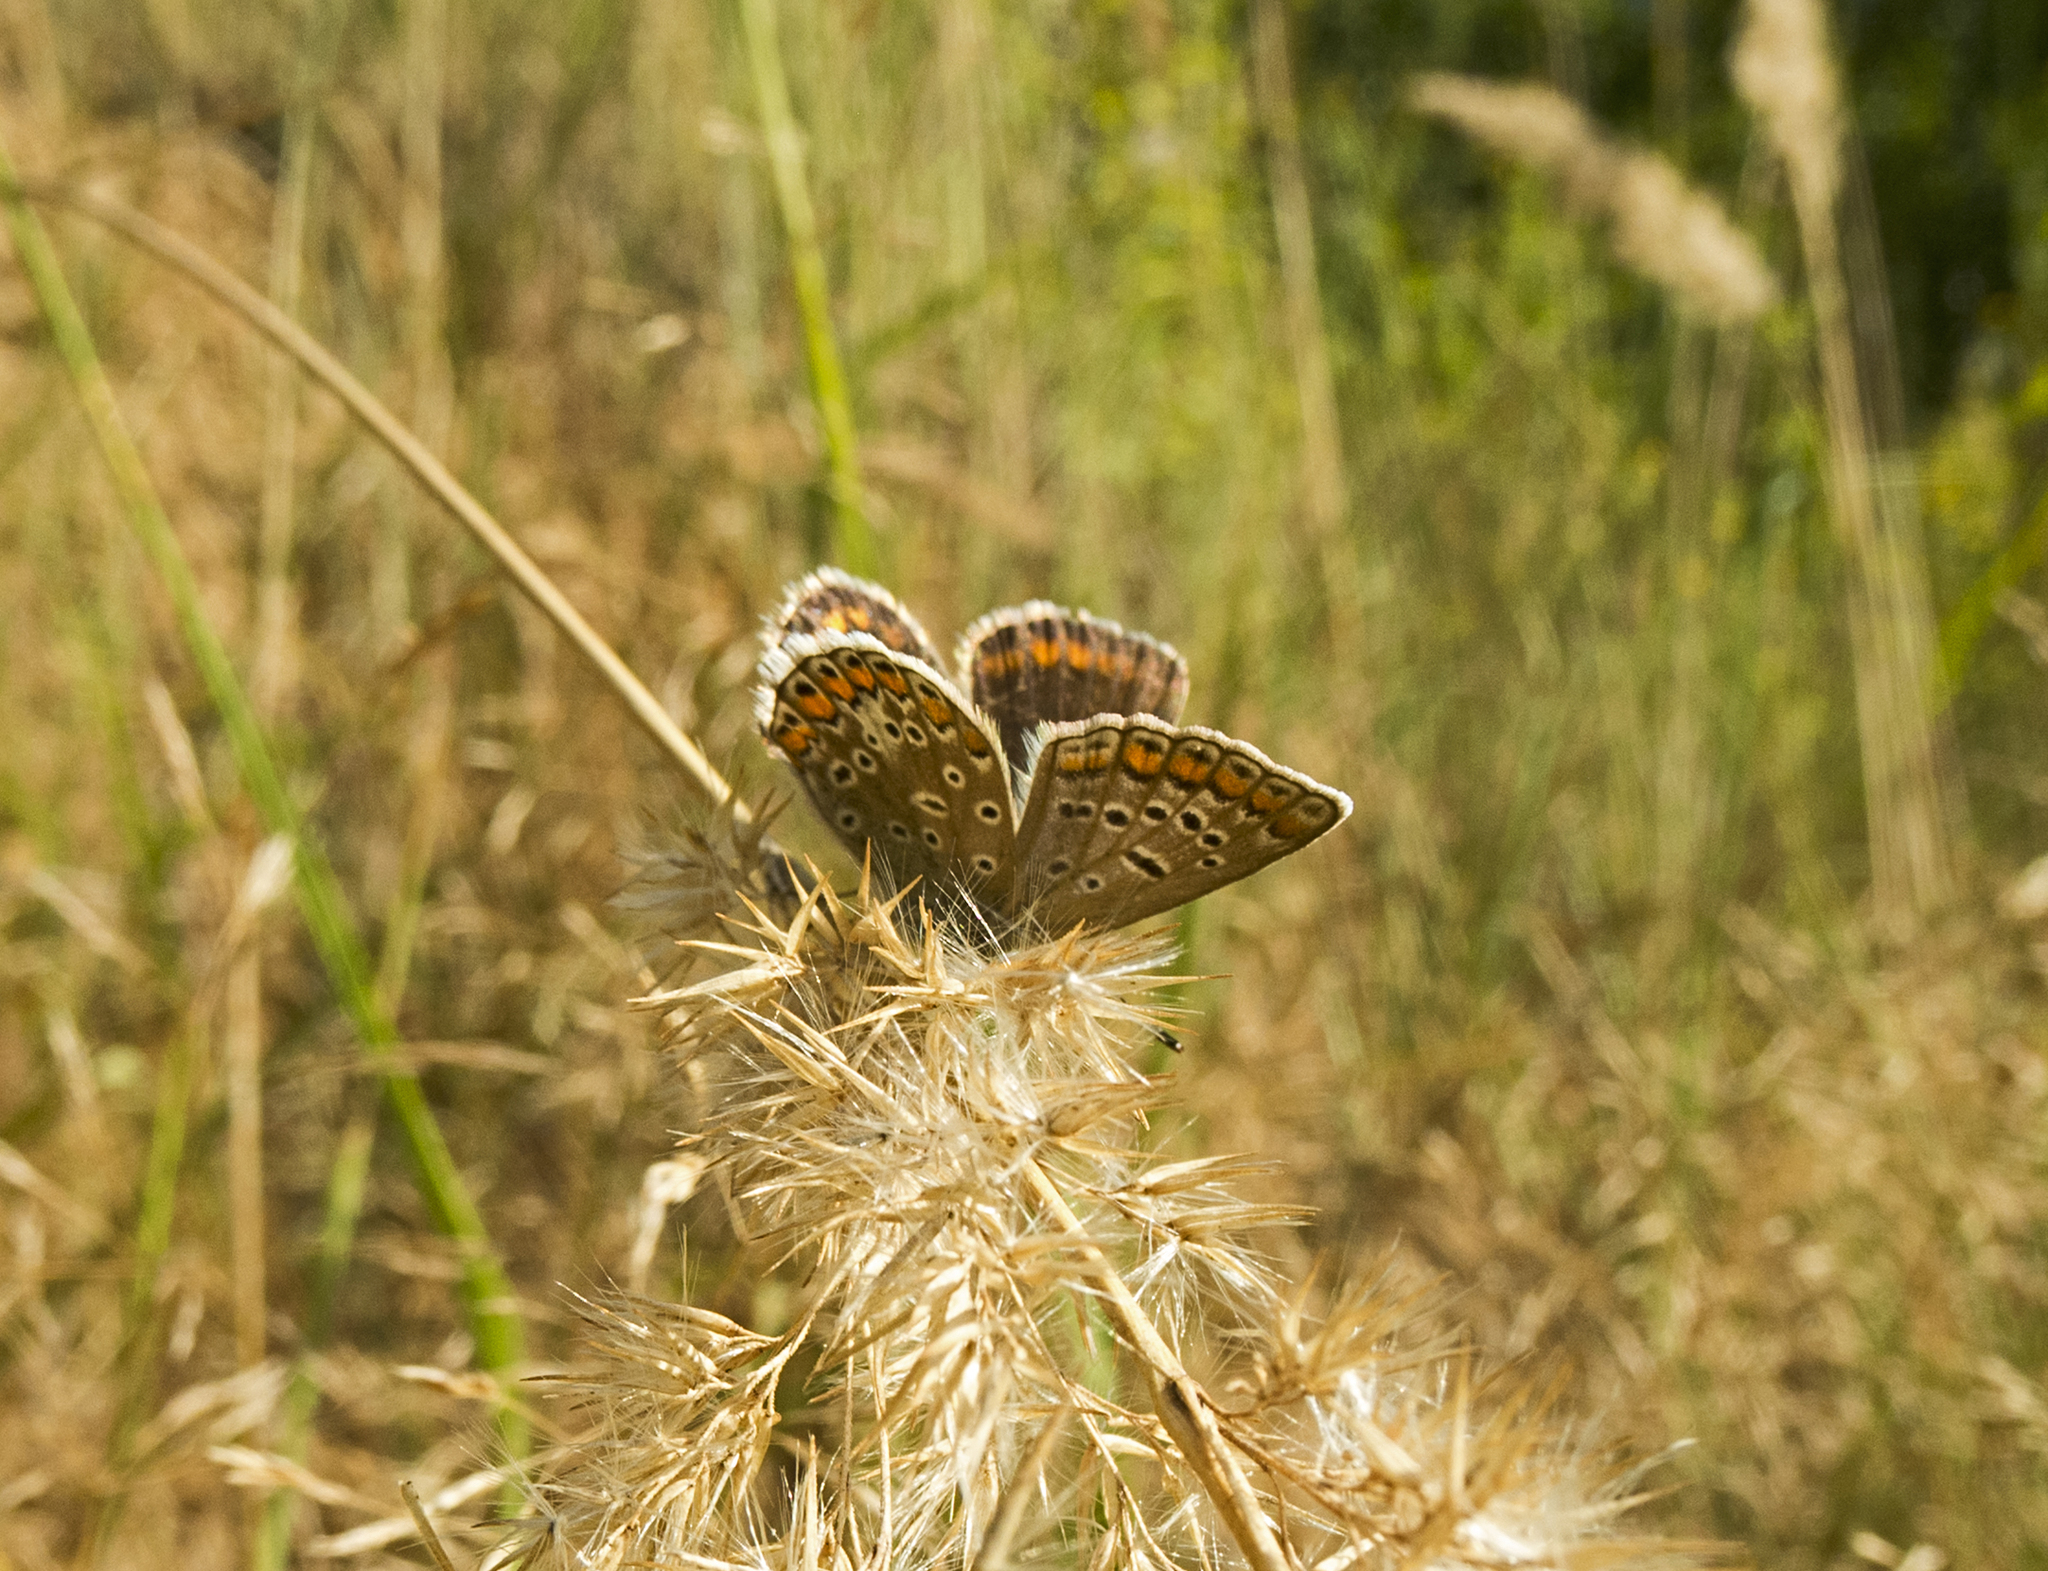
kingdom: Animalia
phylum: Arthropoda
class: Insecta
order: Lepidoptera
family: Lycaenidae
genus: Polyommatus
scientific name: Polyommatus icarus
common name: Common blue
